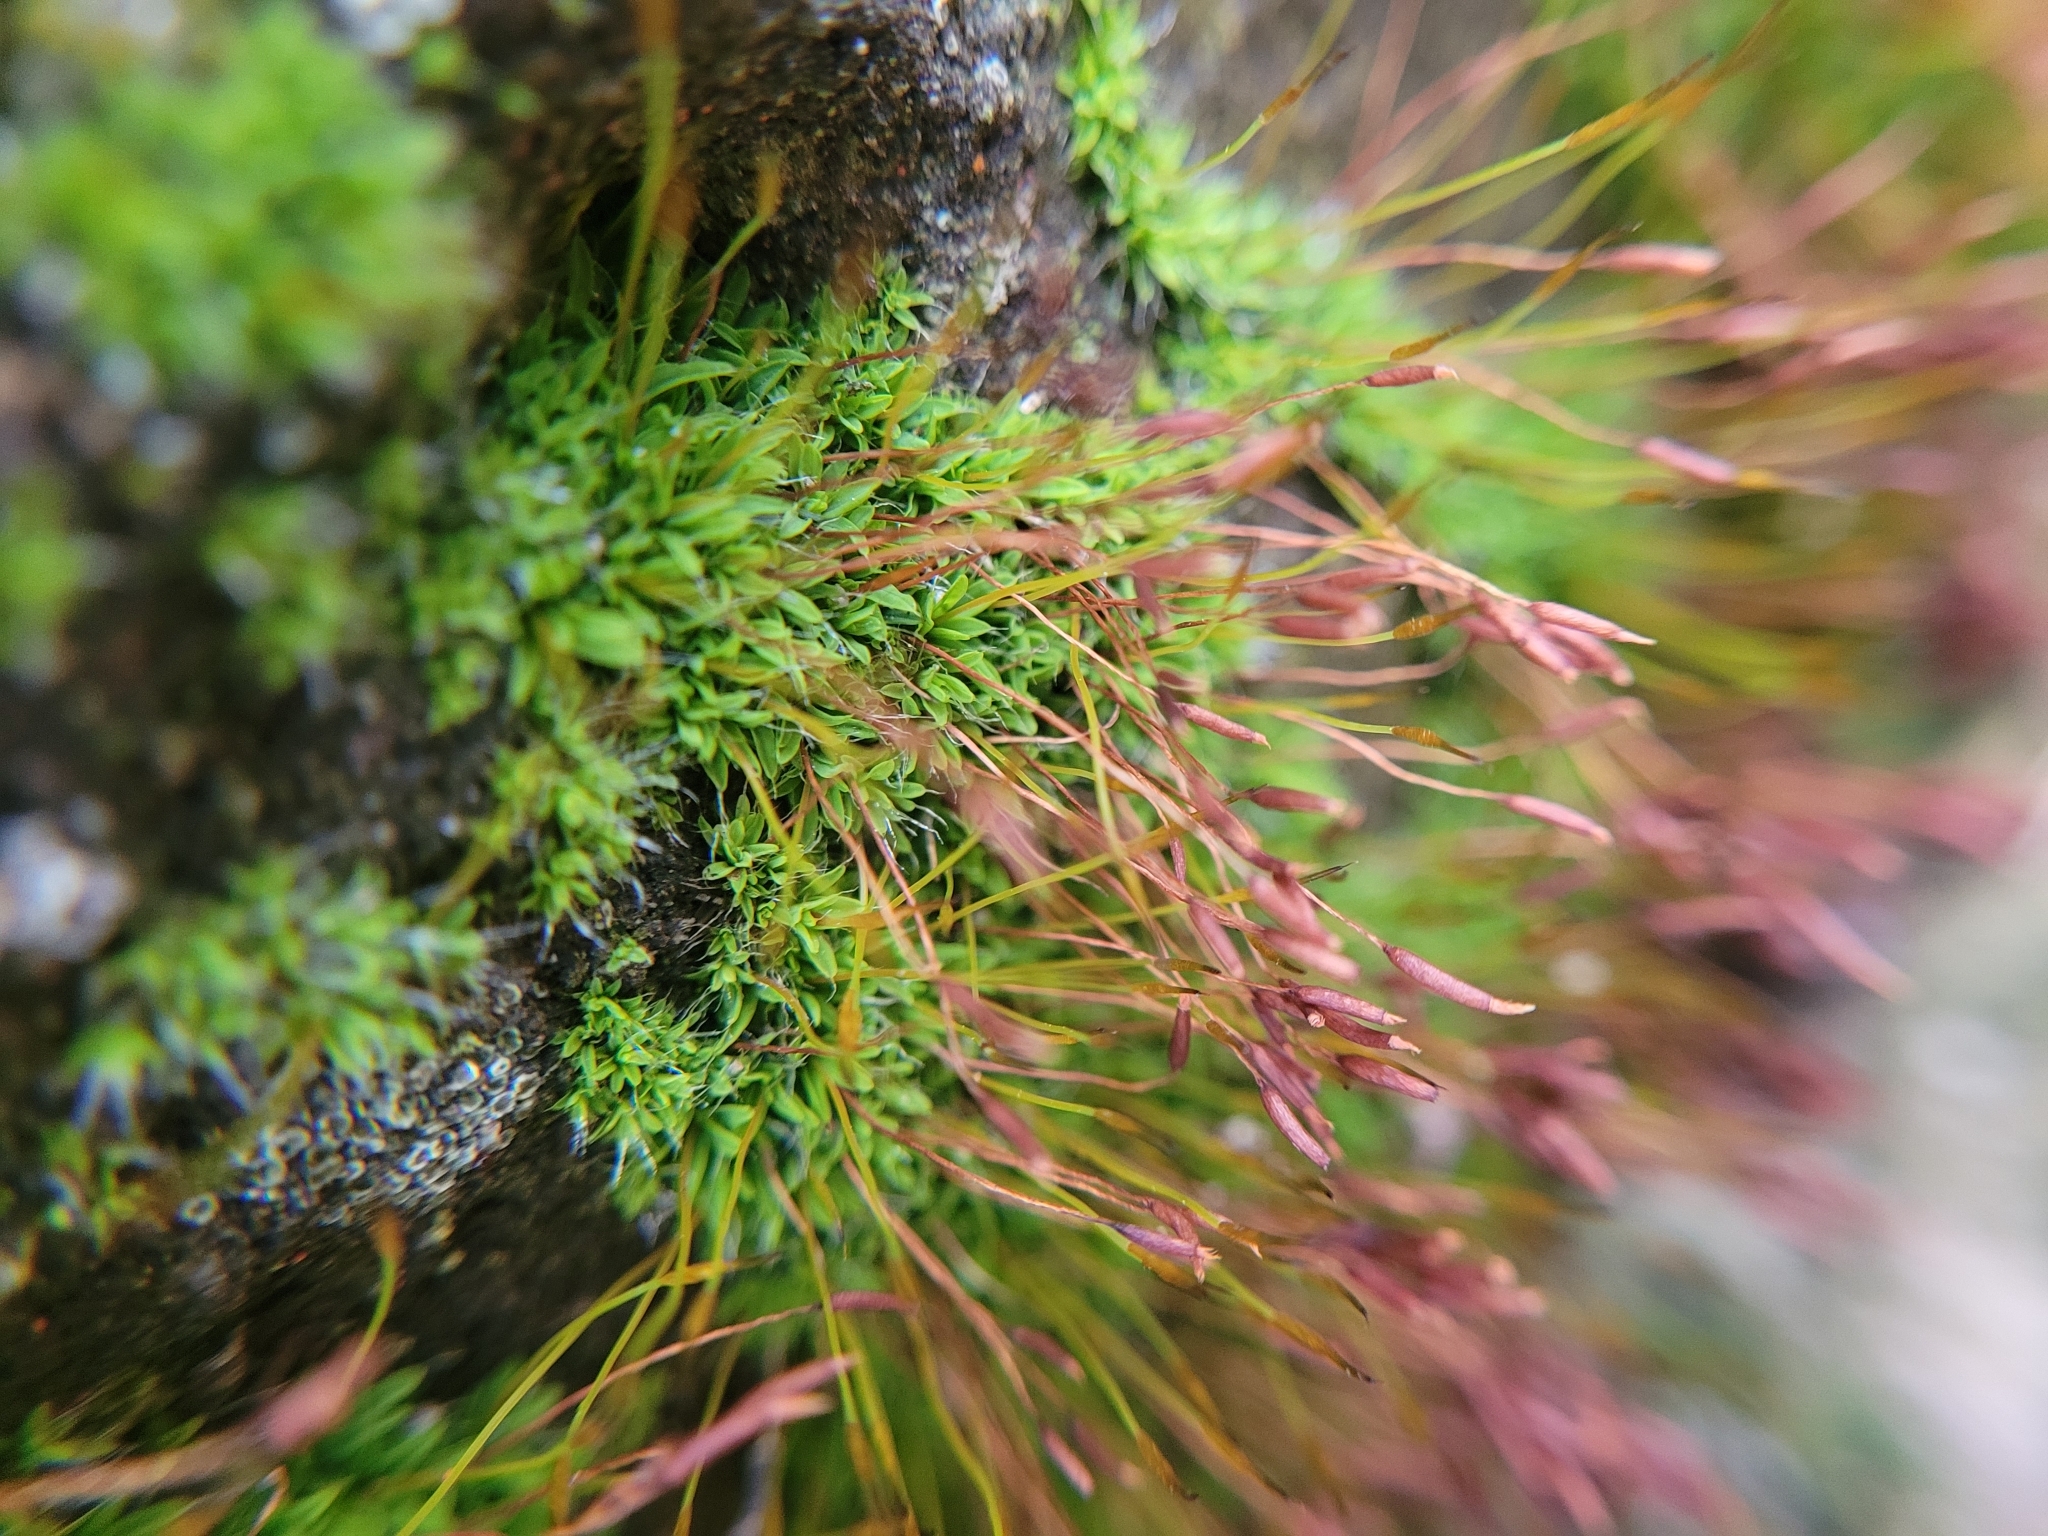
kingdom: Plantae
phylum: Bryophyta
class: Bryopsida
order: Pottiales
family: Pottiaceae
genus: Tortula
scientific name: Tortula muralis
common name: Wall screw-moss
